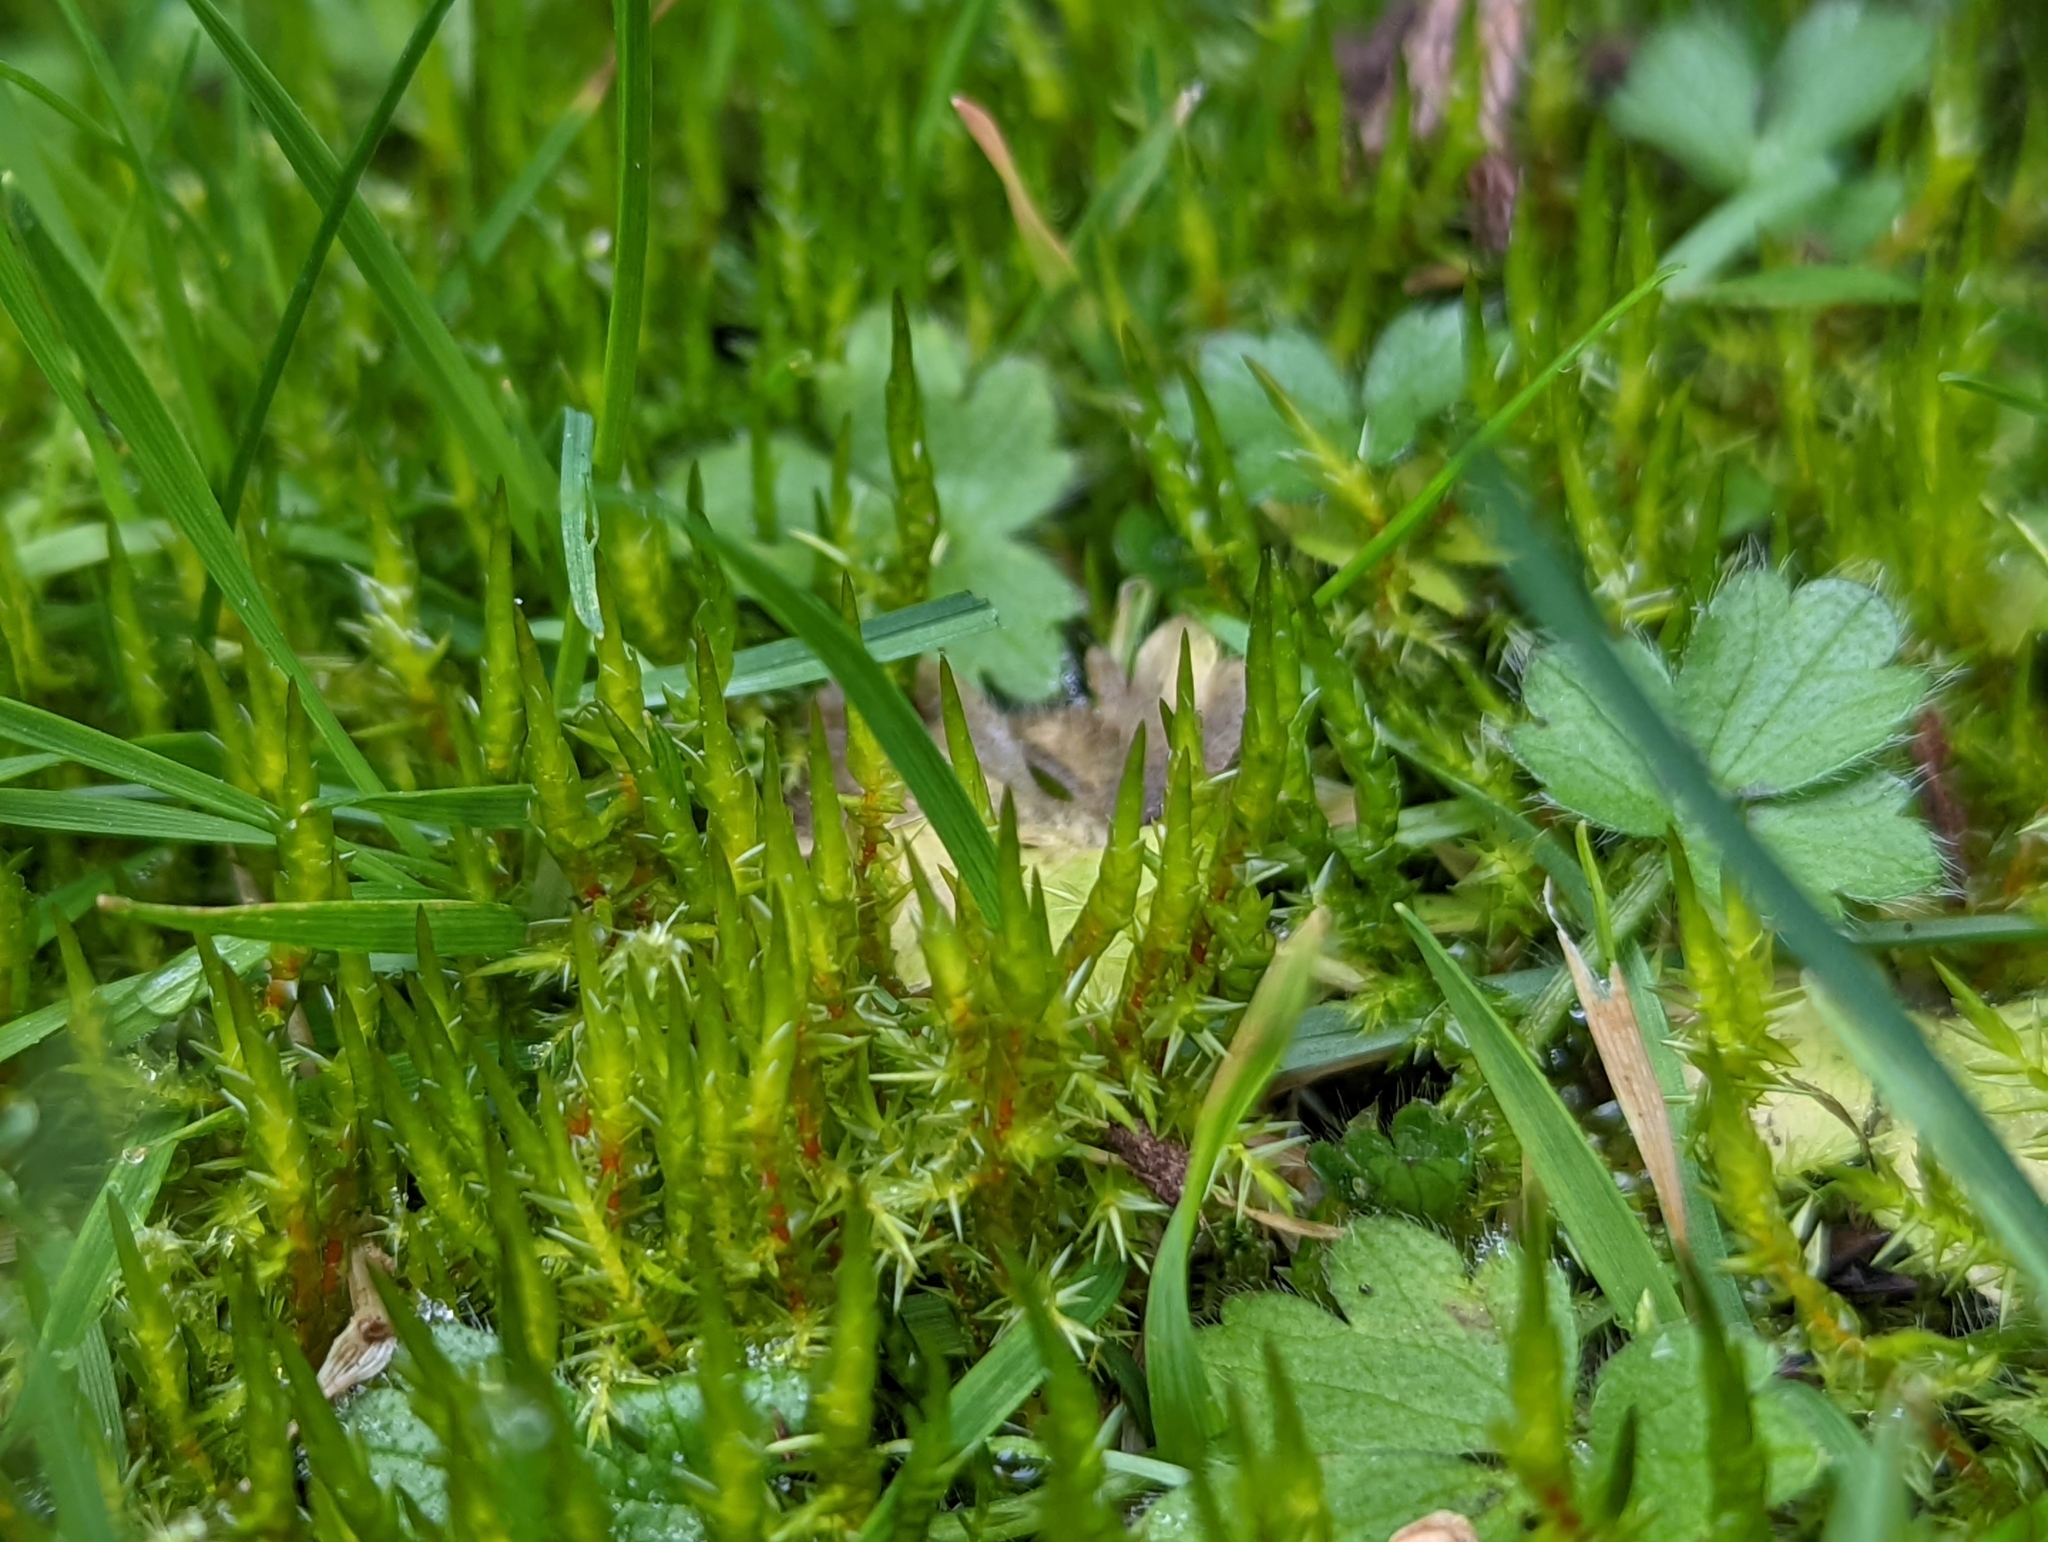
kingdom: Plantae
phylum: Bryophyta
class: Bryopsida
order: Hypnales
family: Pylaisiaceae
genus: Calliergonella
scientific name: Calliergonella cuspidata
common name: Common large wetland moss
